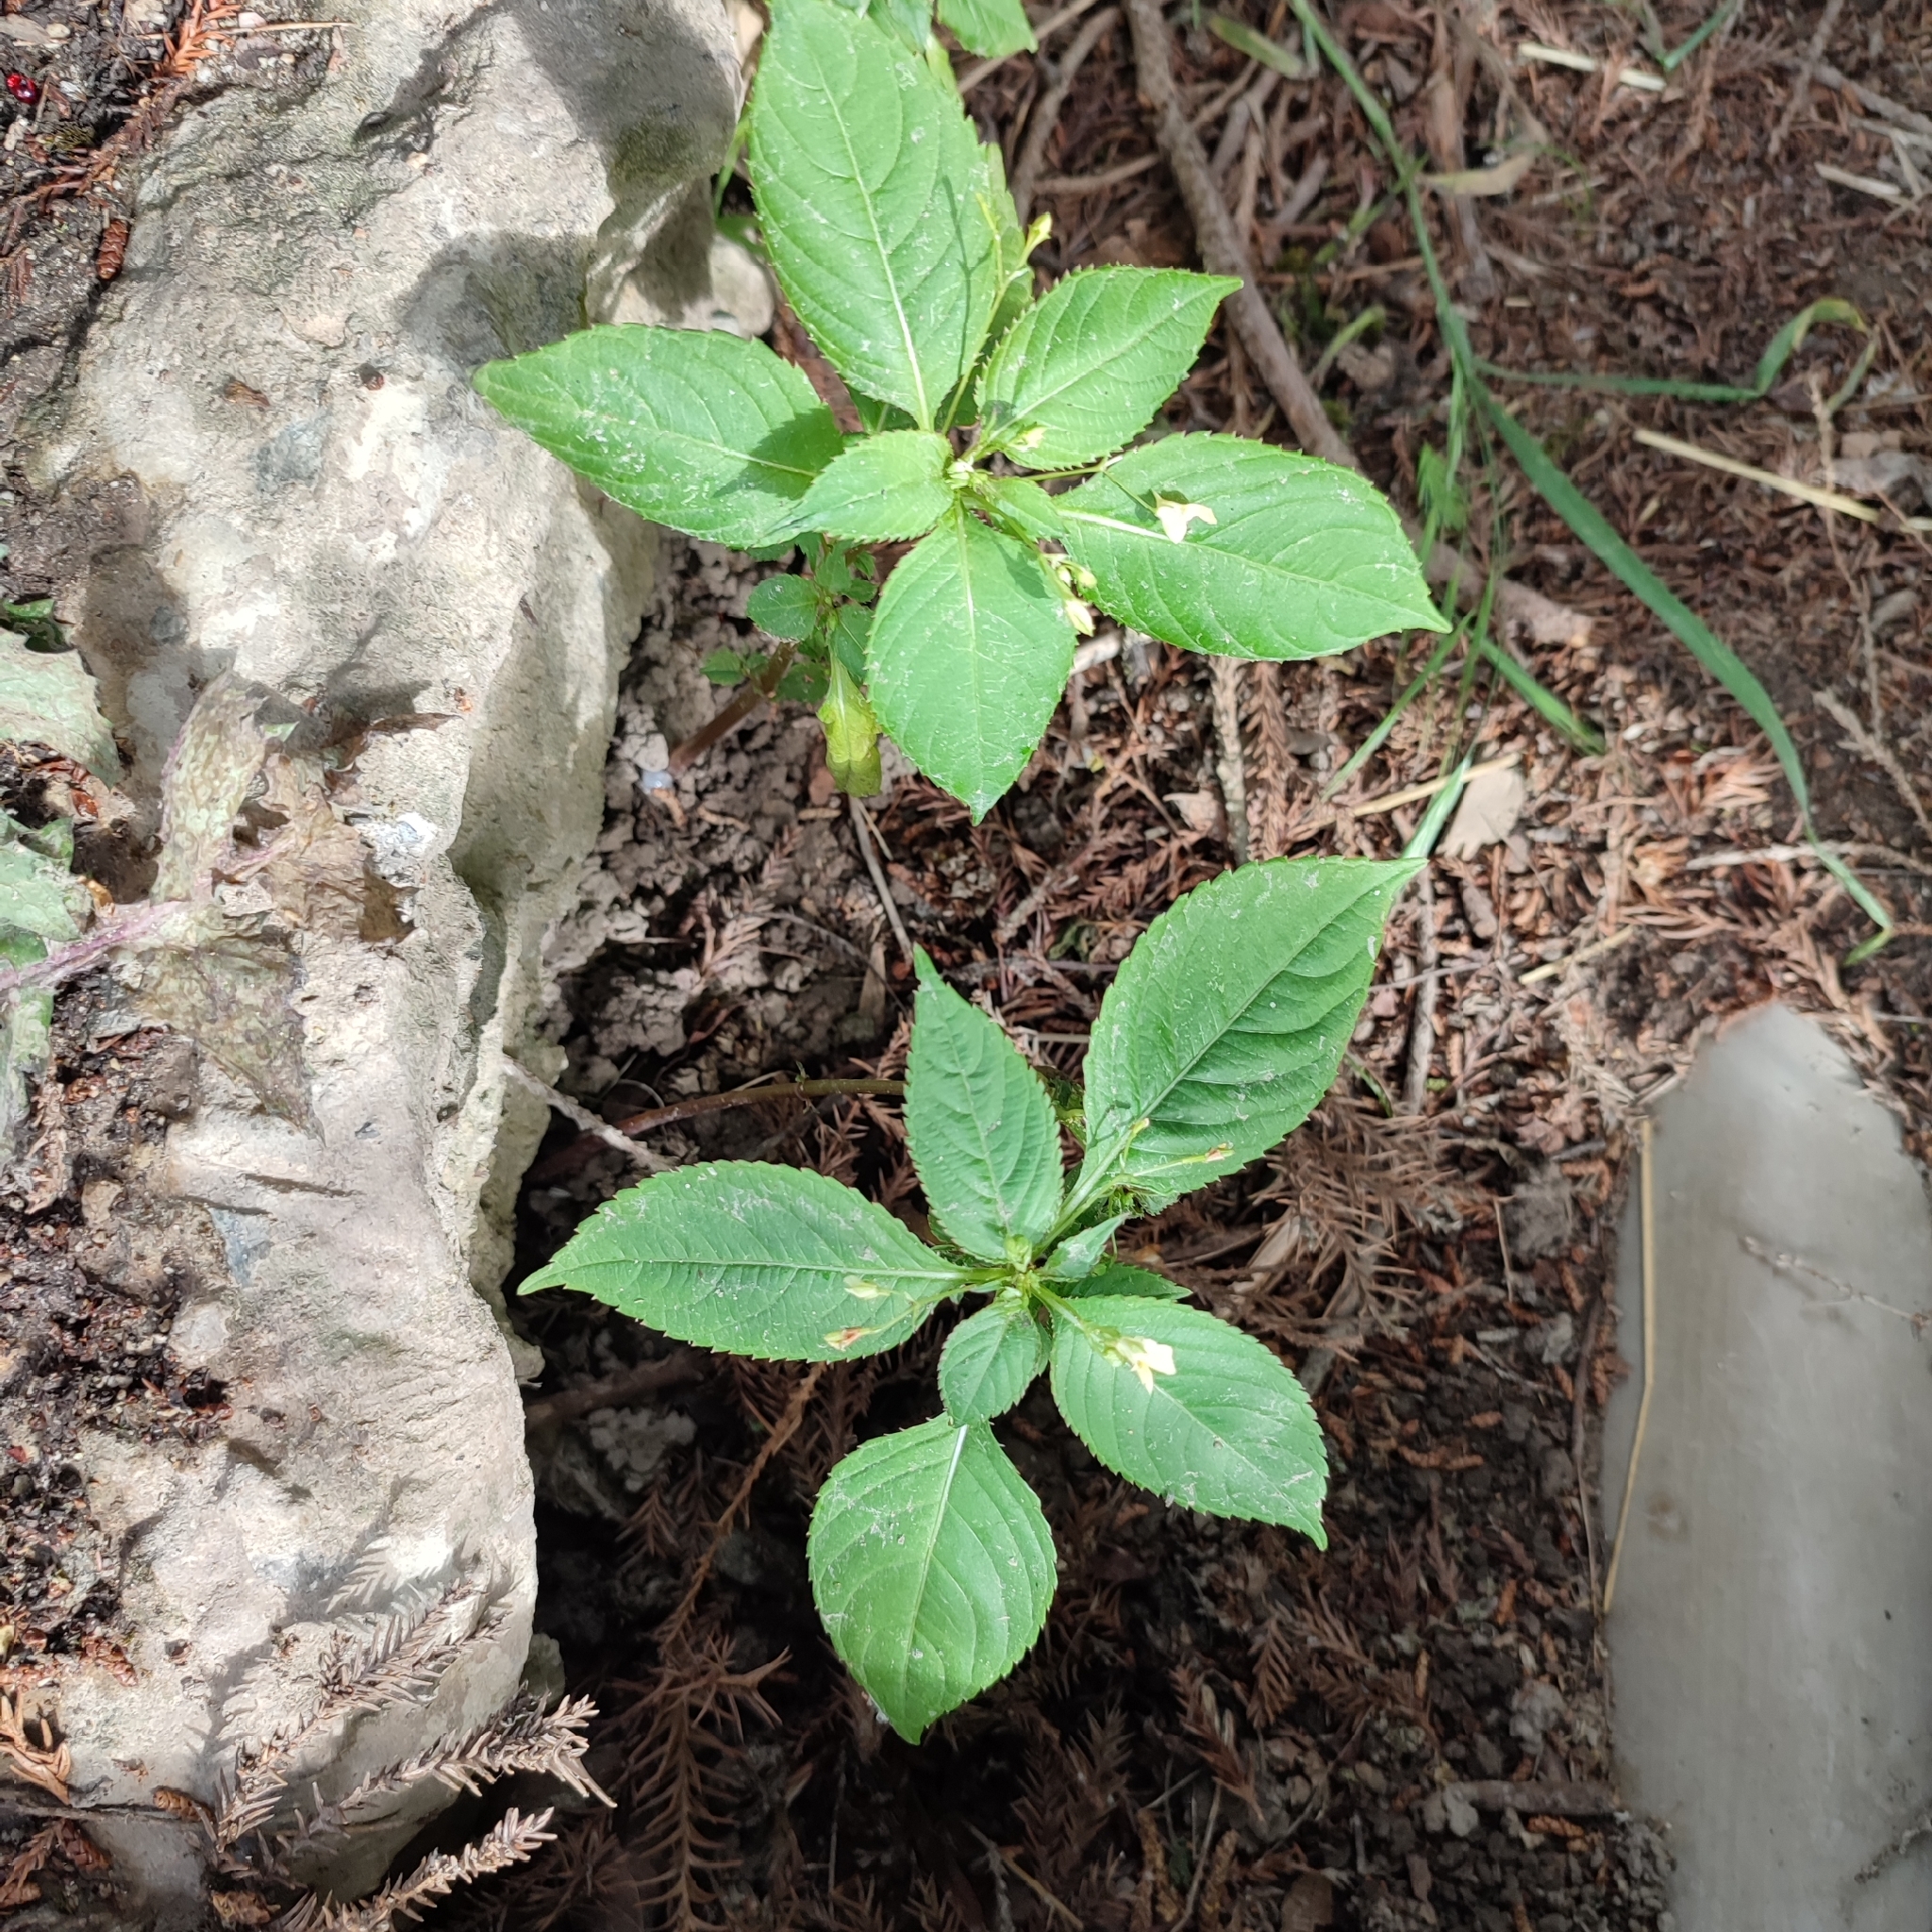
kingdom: Plantae
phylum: Tracheophyta
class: Magnoliopsida
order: Ericales
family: Balsaminaceae
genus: Impatiens
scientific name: Impatiens parviflora
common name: Small balsam
